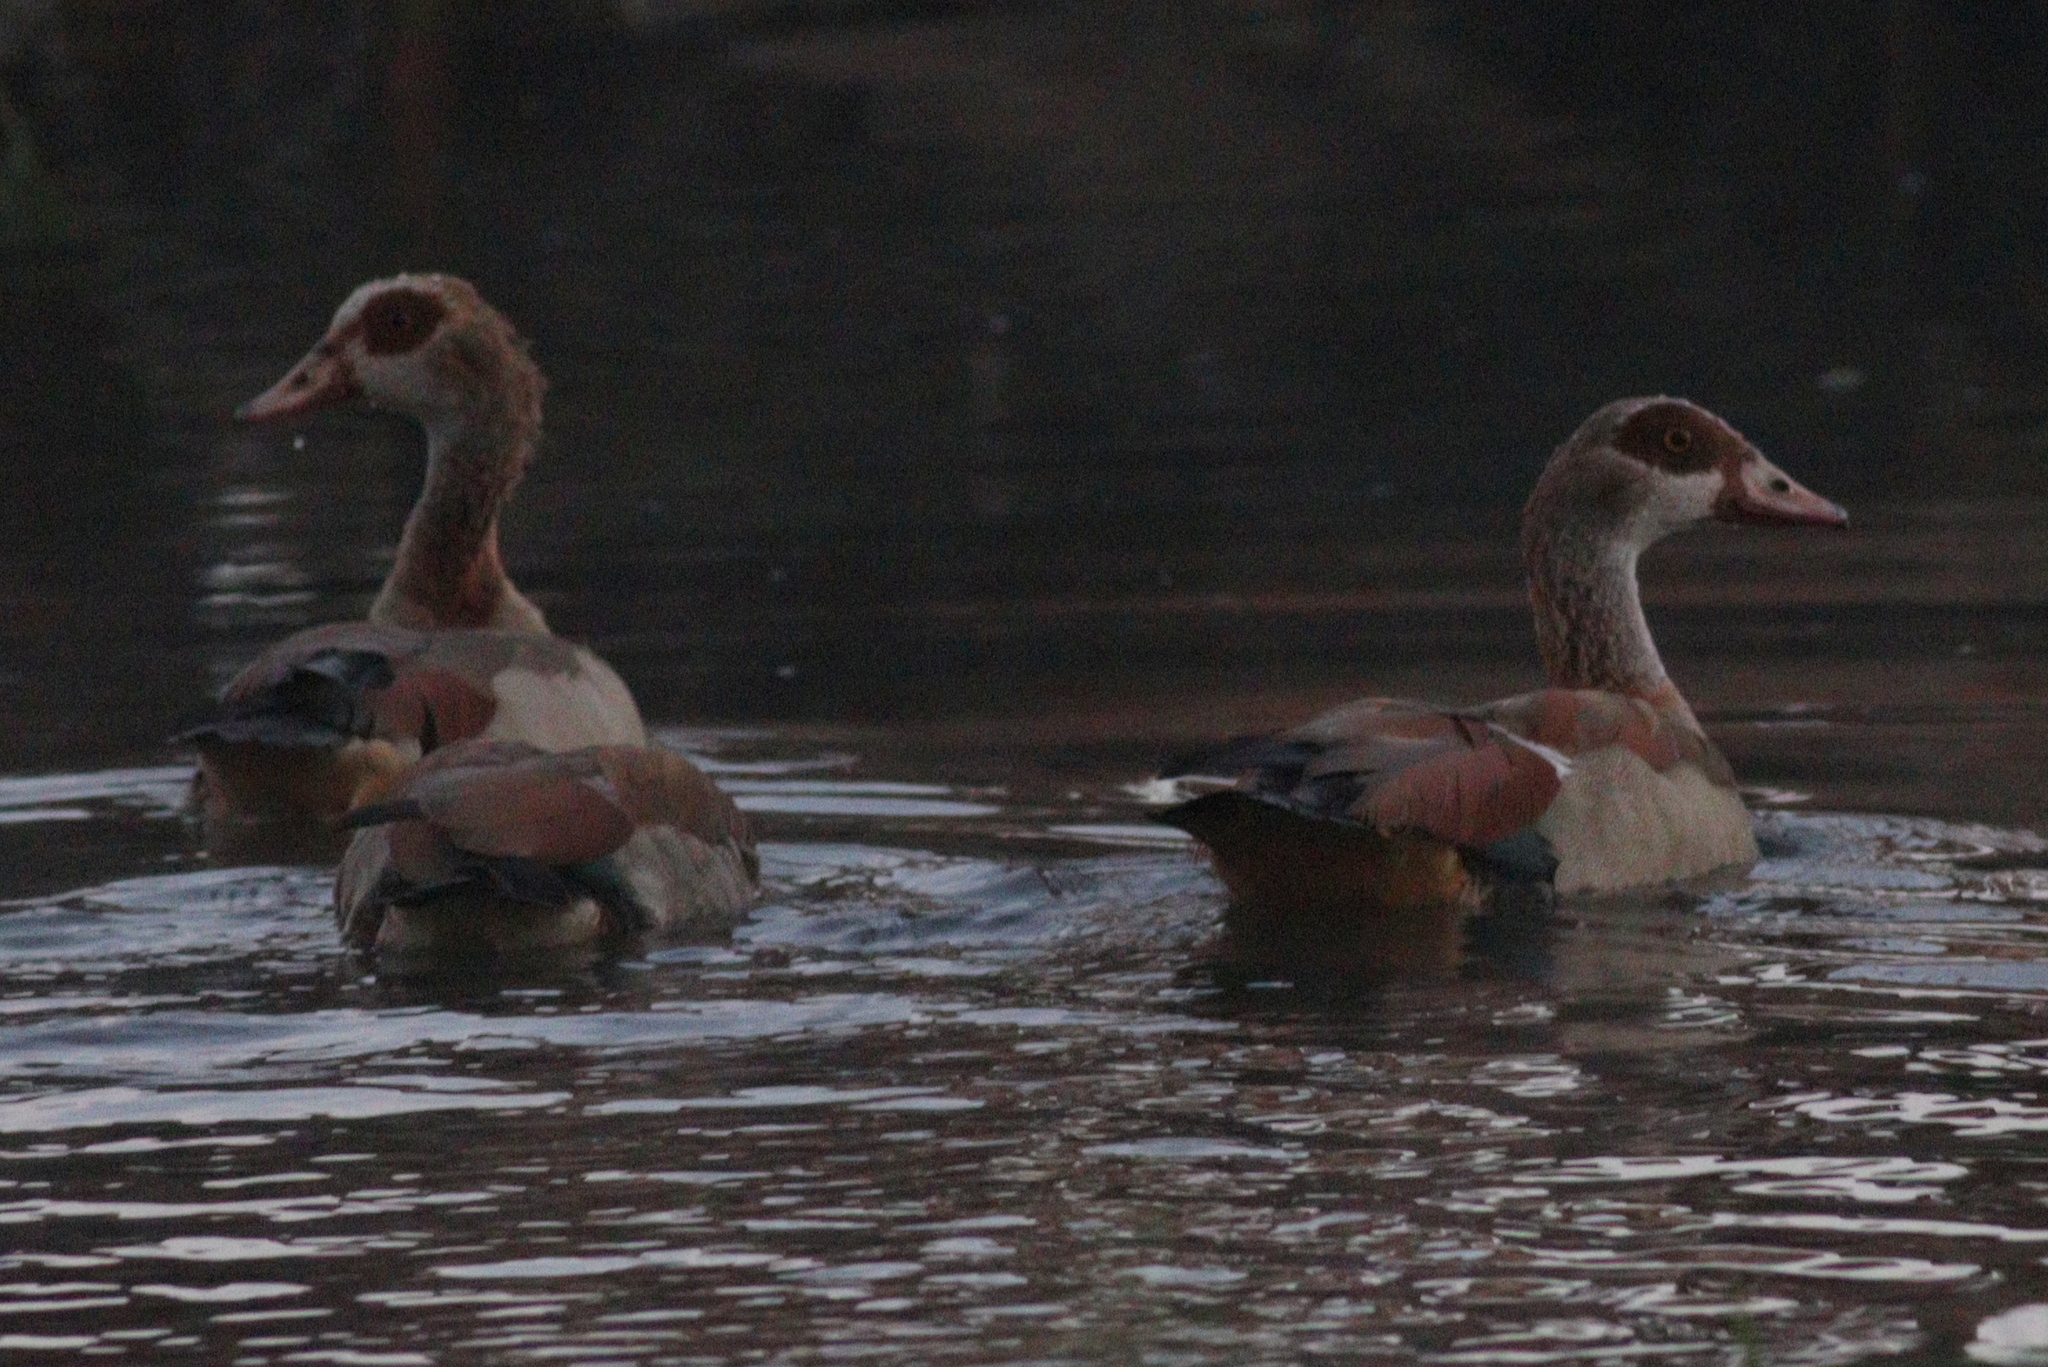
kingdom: Animalia
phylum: Chordata
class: Aves
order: Anseriformes
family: Anatidae
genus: Alopochen
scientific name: Alopochen aegyptiaca
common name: Egyptian goose
